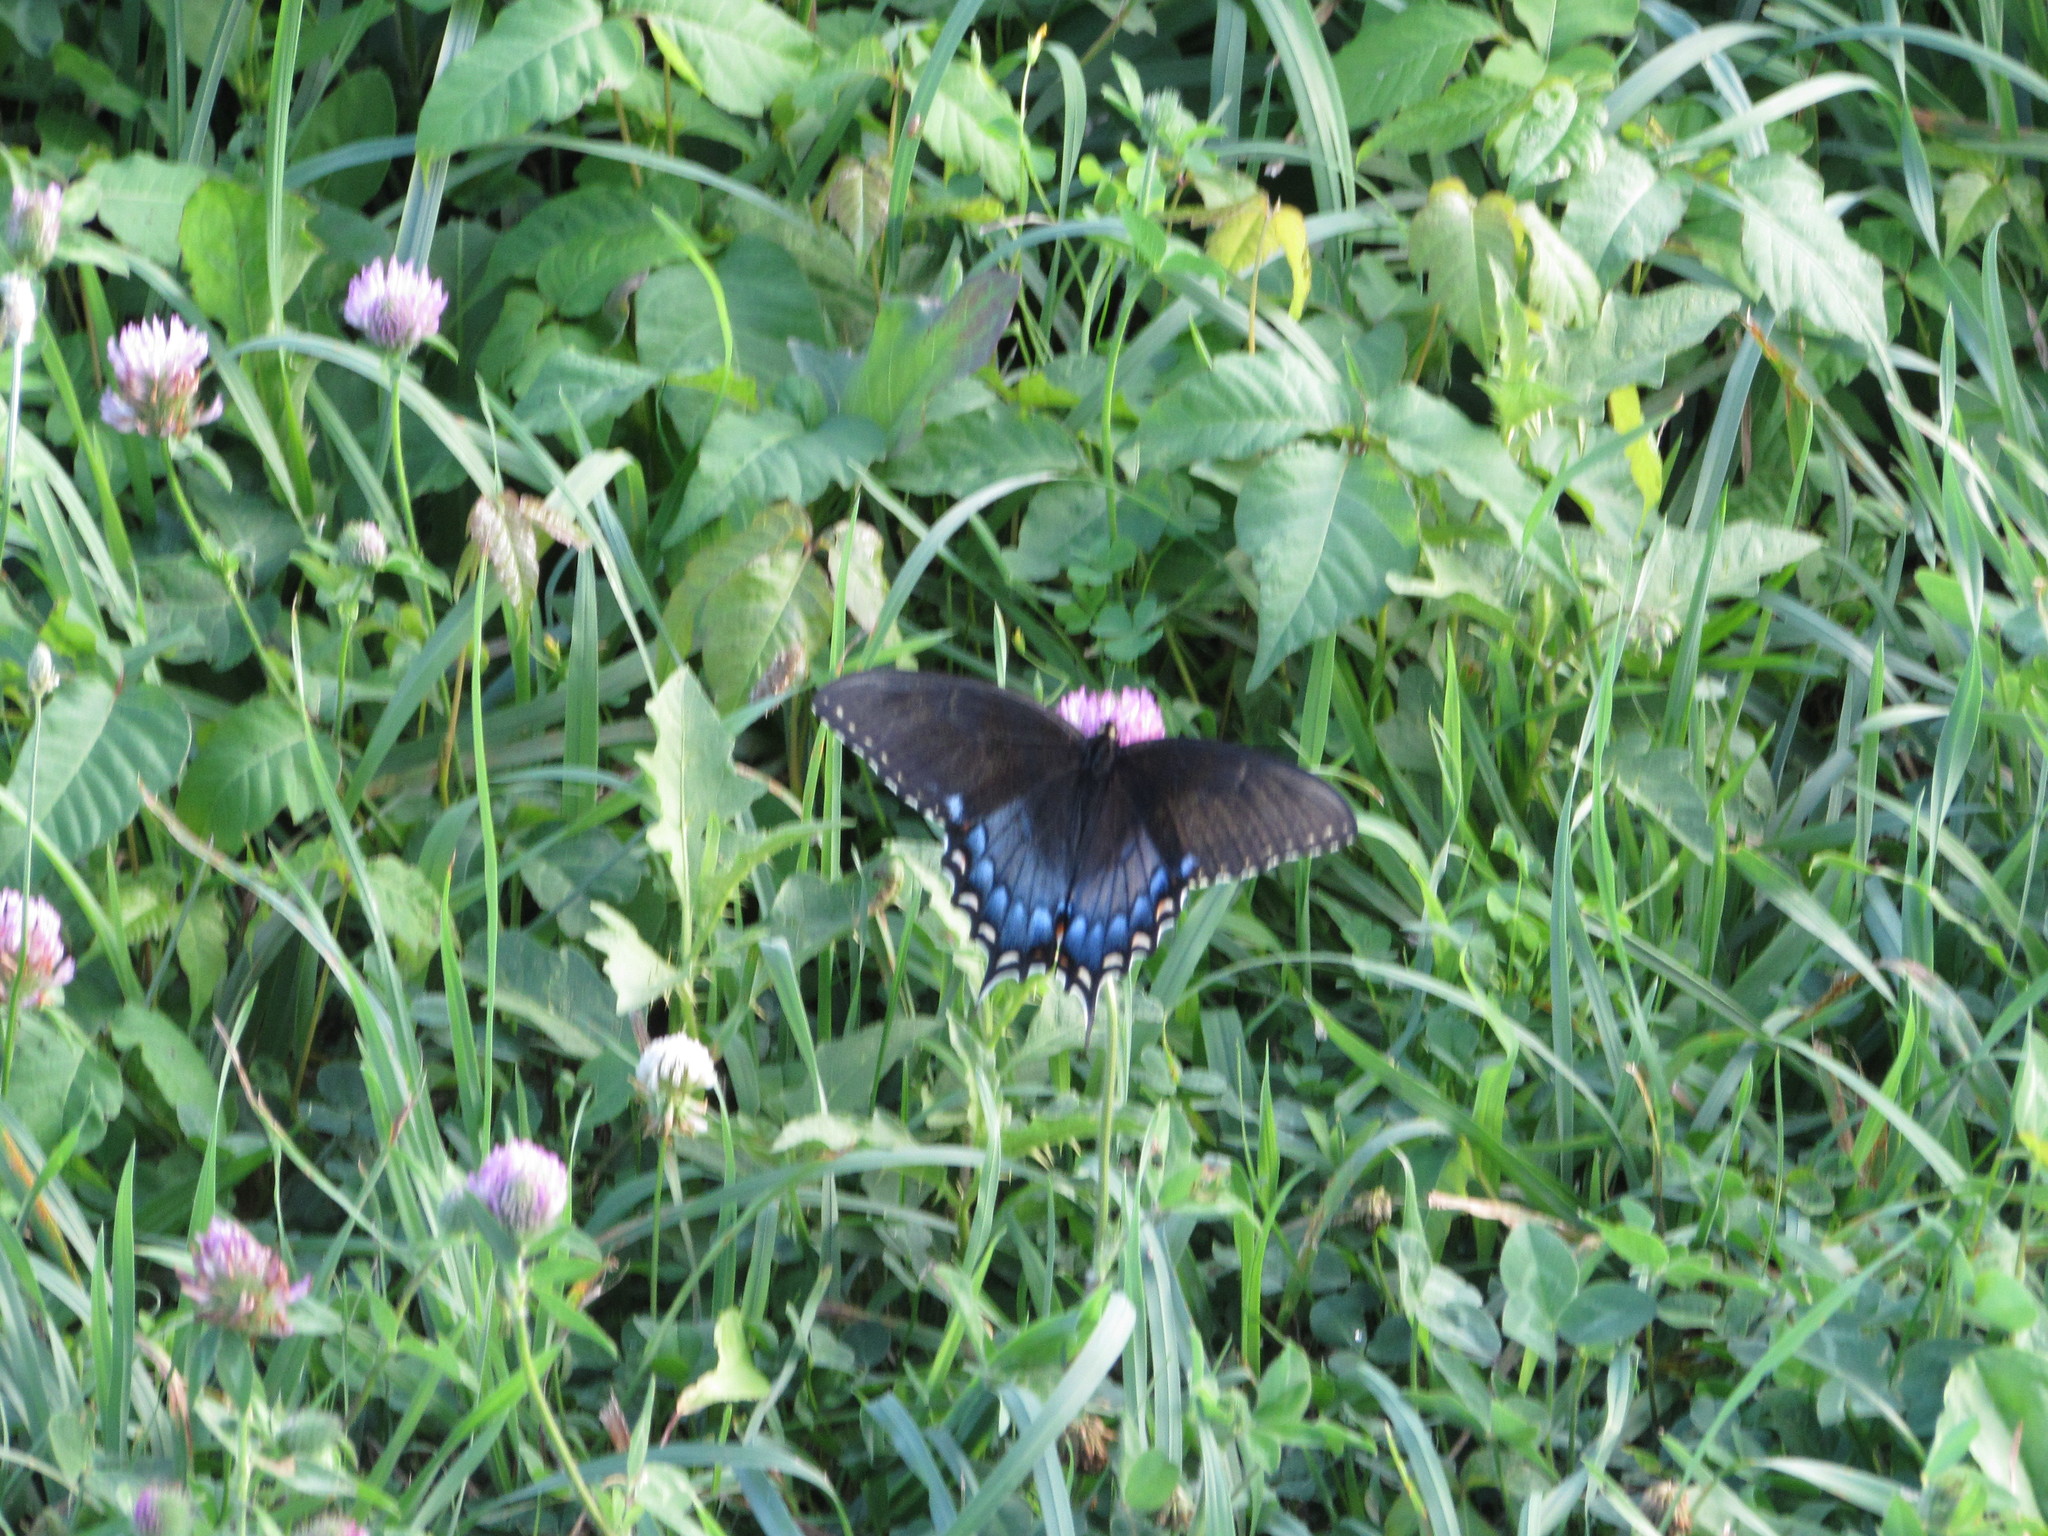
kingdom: Animalia
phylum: Arthropoda
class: Insecta
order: Lepidoptera
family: Papilionidae
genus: Papilio
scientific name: Papilio glaucus
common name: Tiger swallowtail
